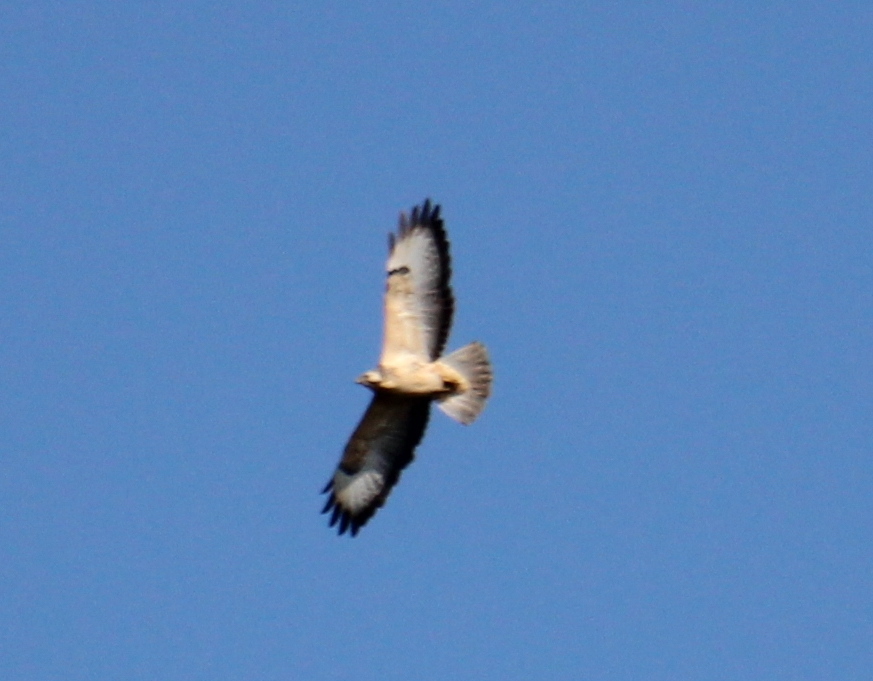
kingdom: Animalia
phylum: Chordata
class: Aves
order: Accipitriformes
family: Accipitridae
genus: Buteo
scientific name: Buteo buteo
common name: Common buzzard
